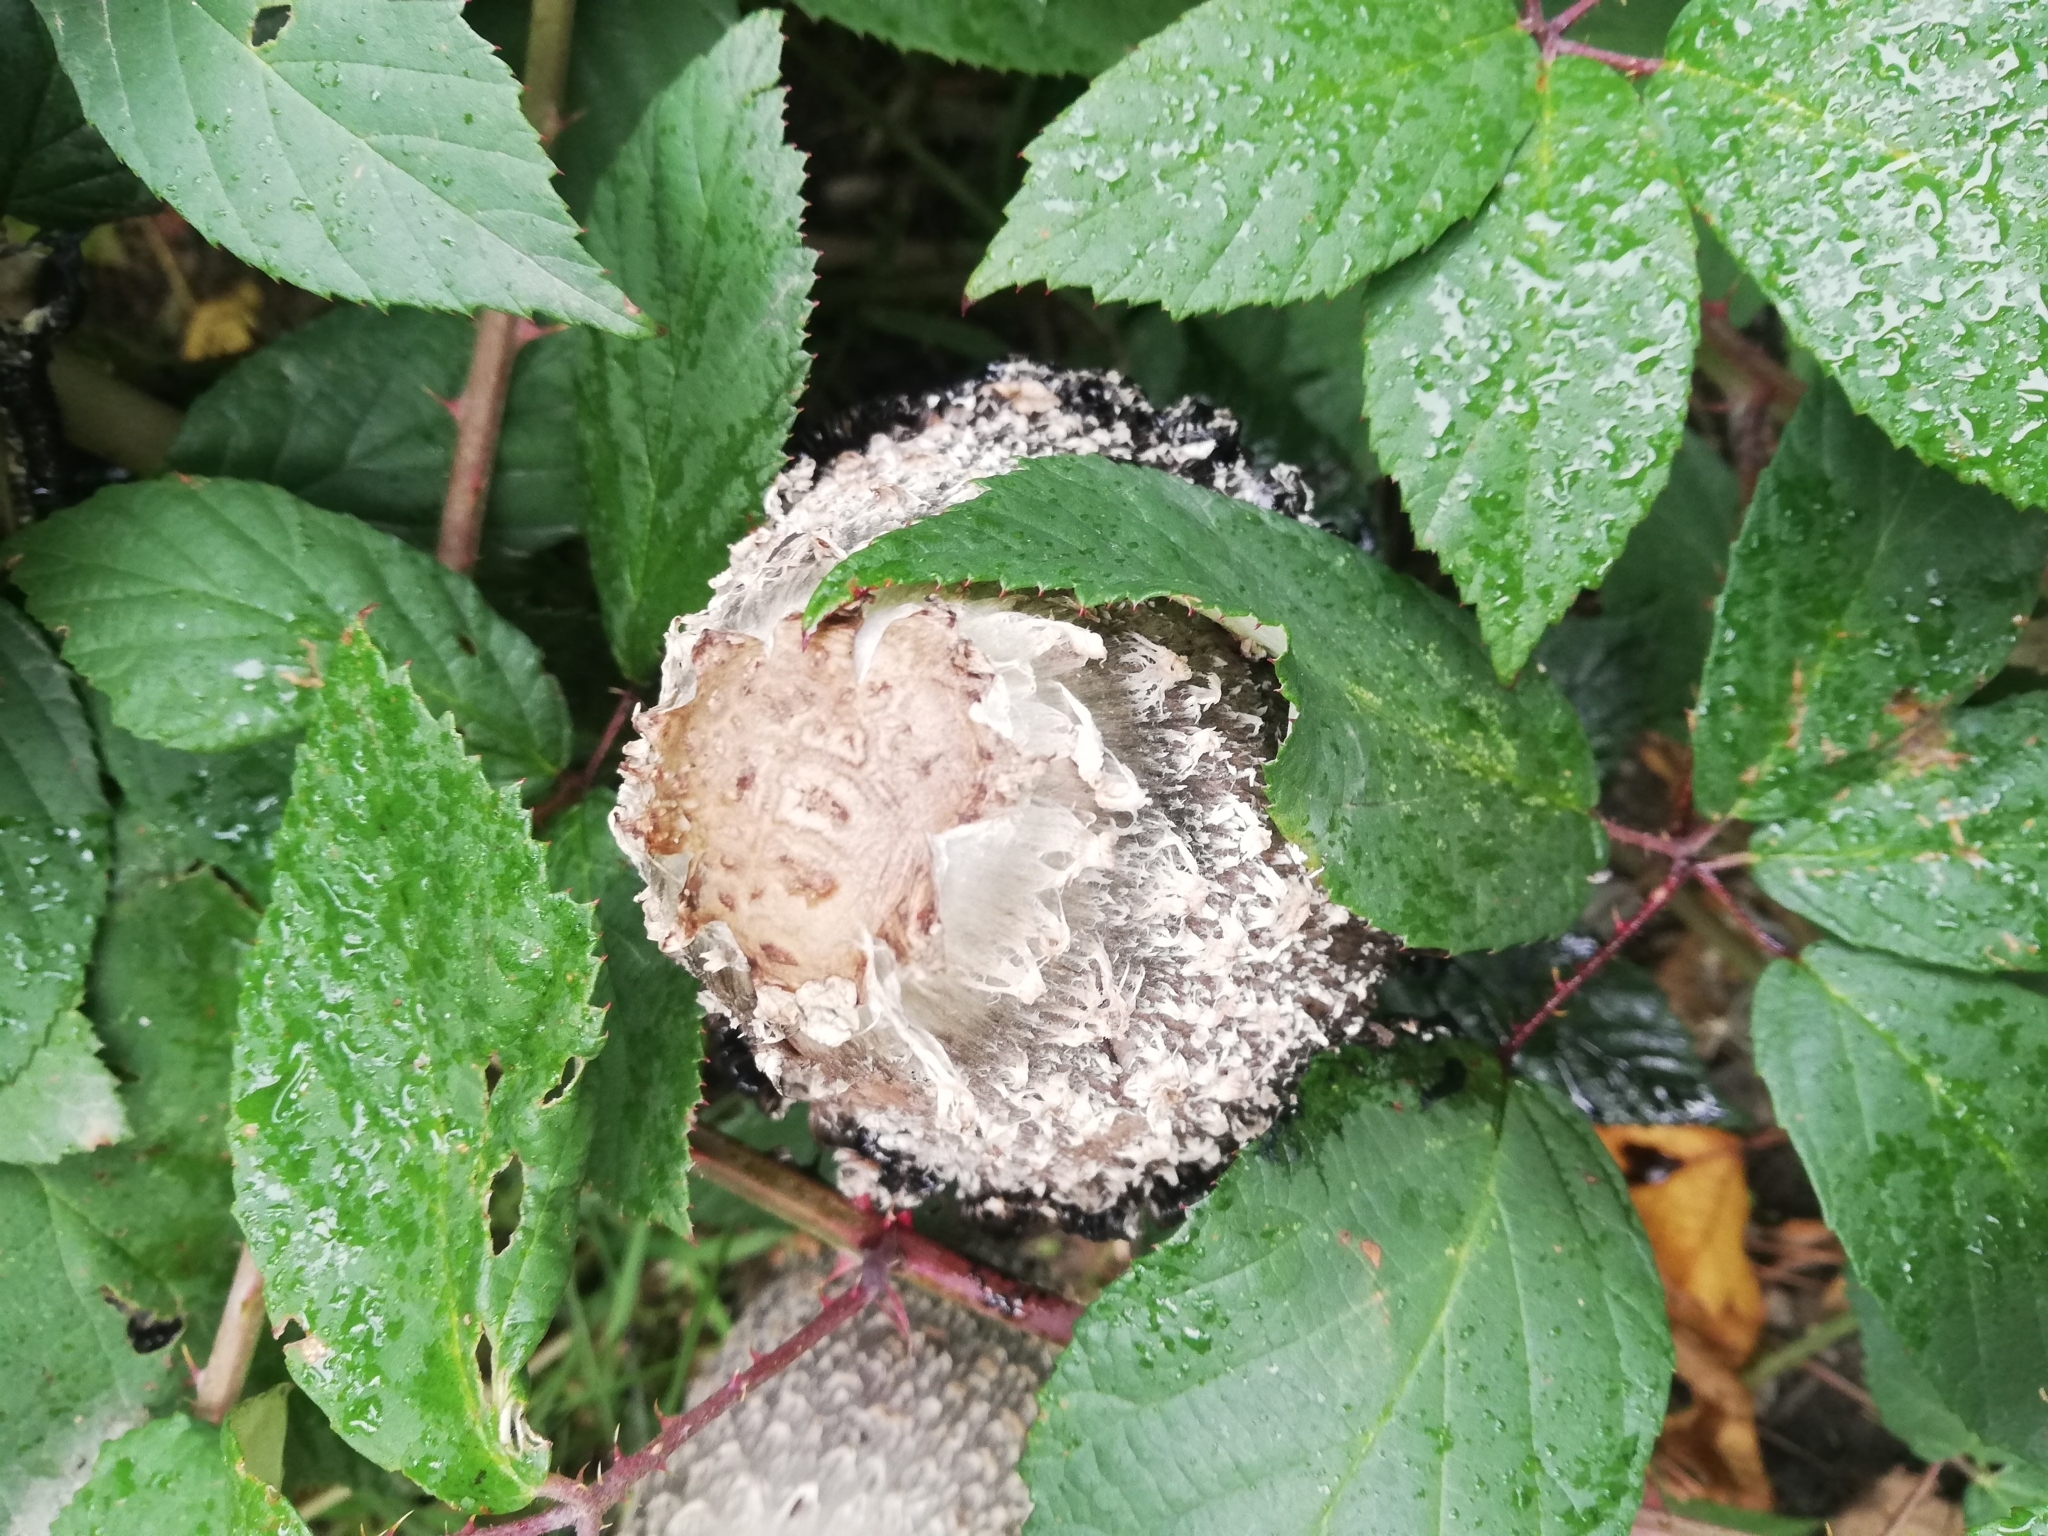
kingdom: Fungi
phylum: Basidiomycota
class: Agaricomycetes
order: Agaricales
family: Agaricaceae
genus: Coprinus
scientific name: Coprinus comatus
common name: Lawyer's wig
